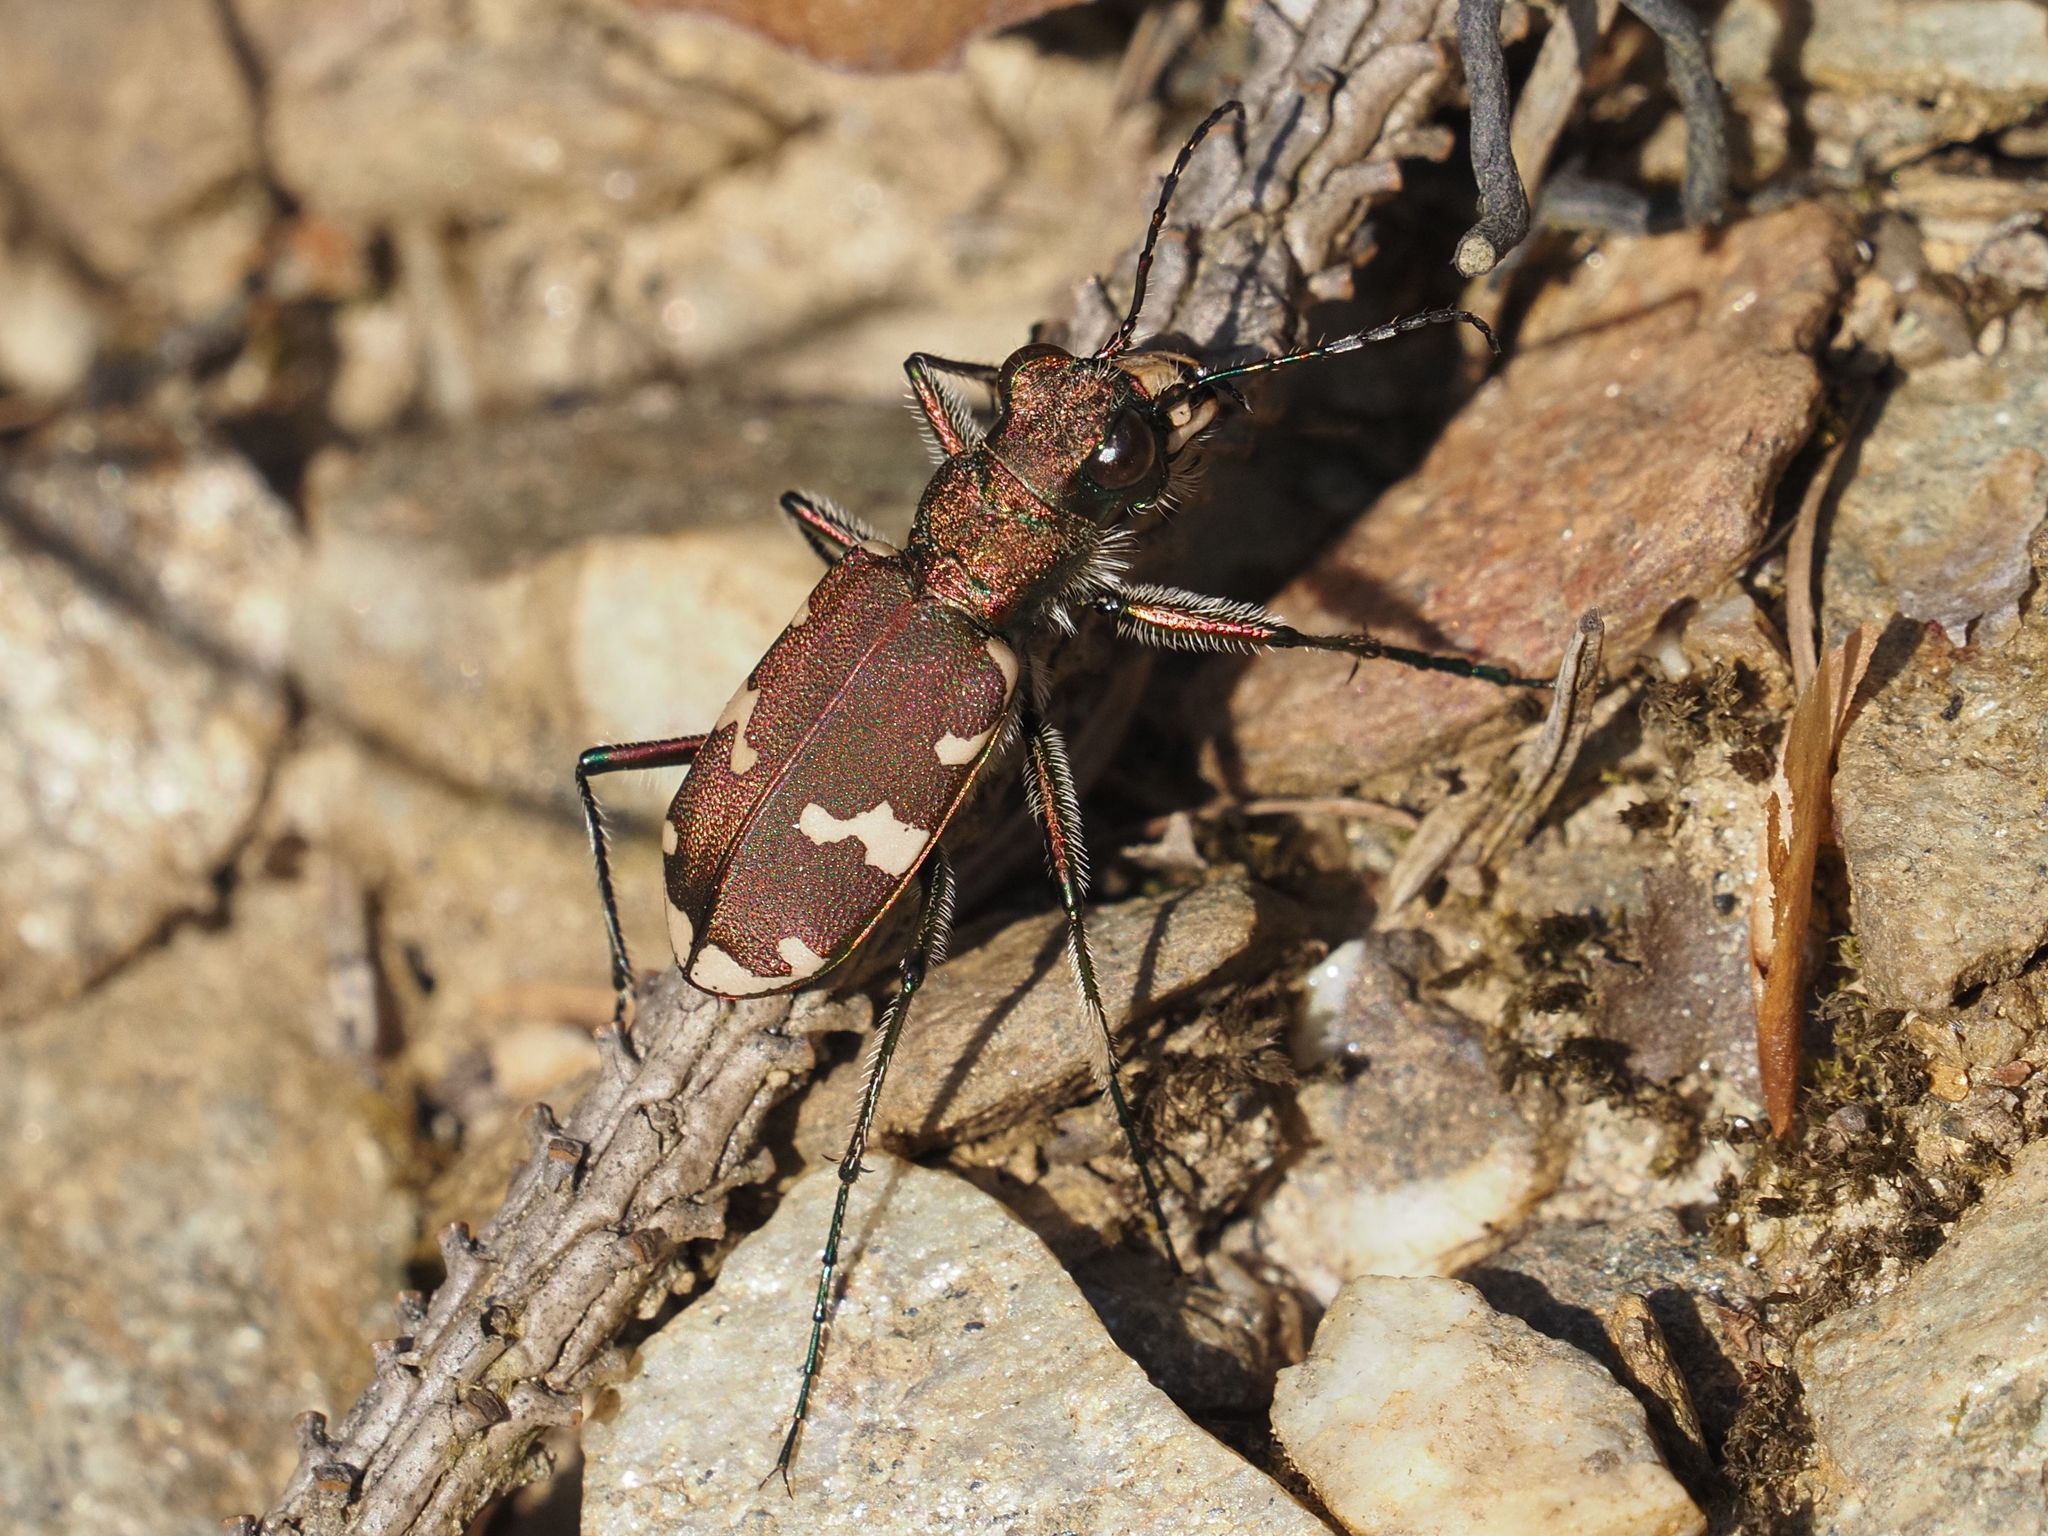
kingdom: Animalia
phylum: Arthropoda
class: Insecta
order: Coleoptera
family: Carabidae
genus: Cicindela
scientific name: Cicindela sylvicola
